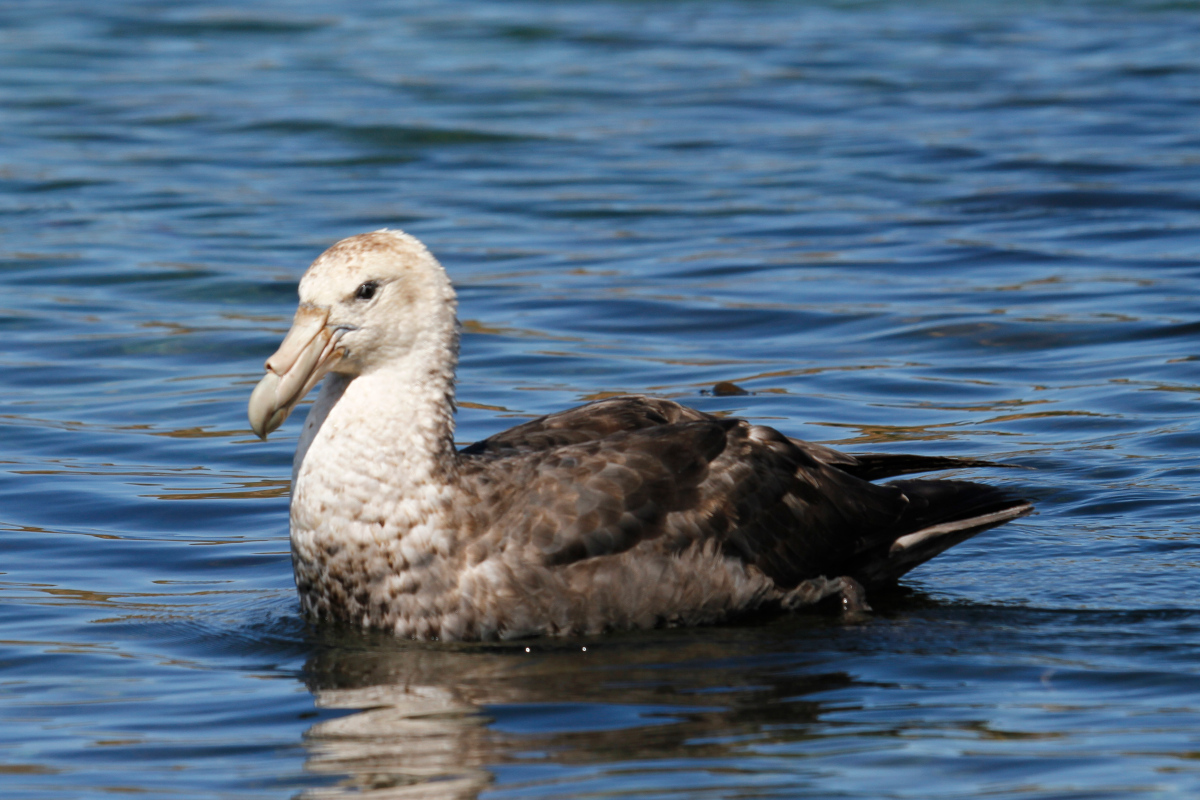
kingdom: Animalia
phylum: Chordata
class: Aves
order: Procellariiformes
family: Procellariidae
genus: Macronectes
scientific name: Macronectes giganteus
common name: Southern giant petrel
